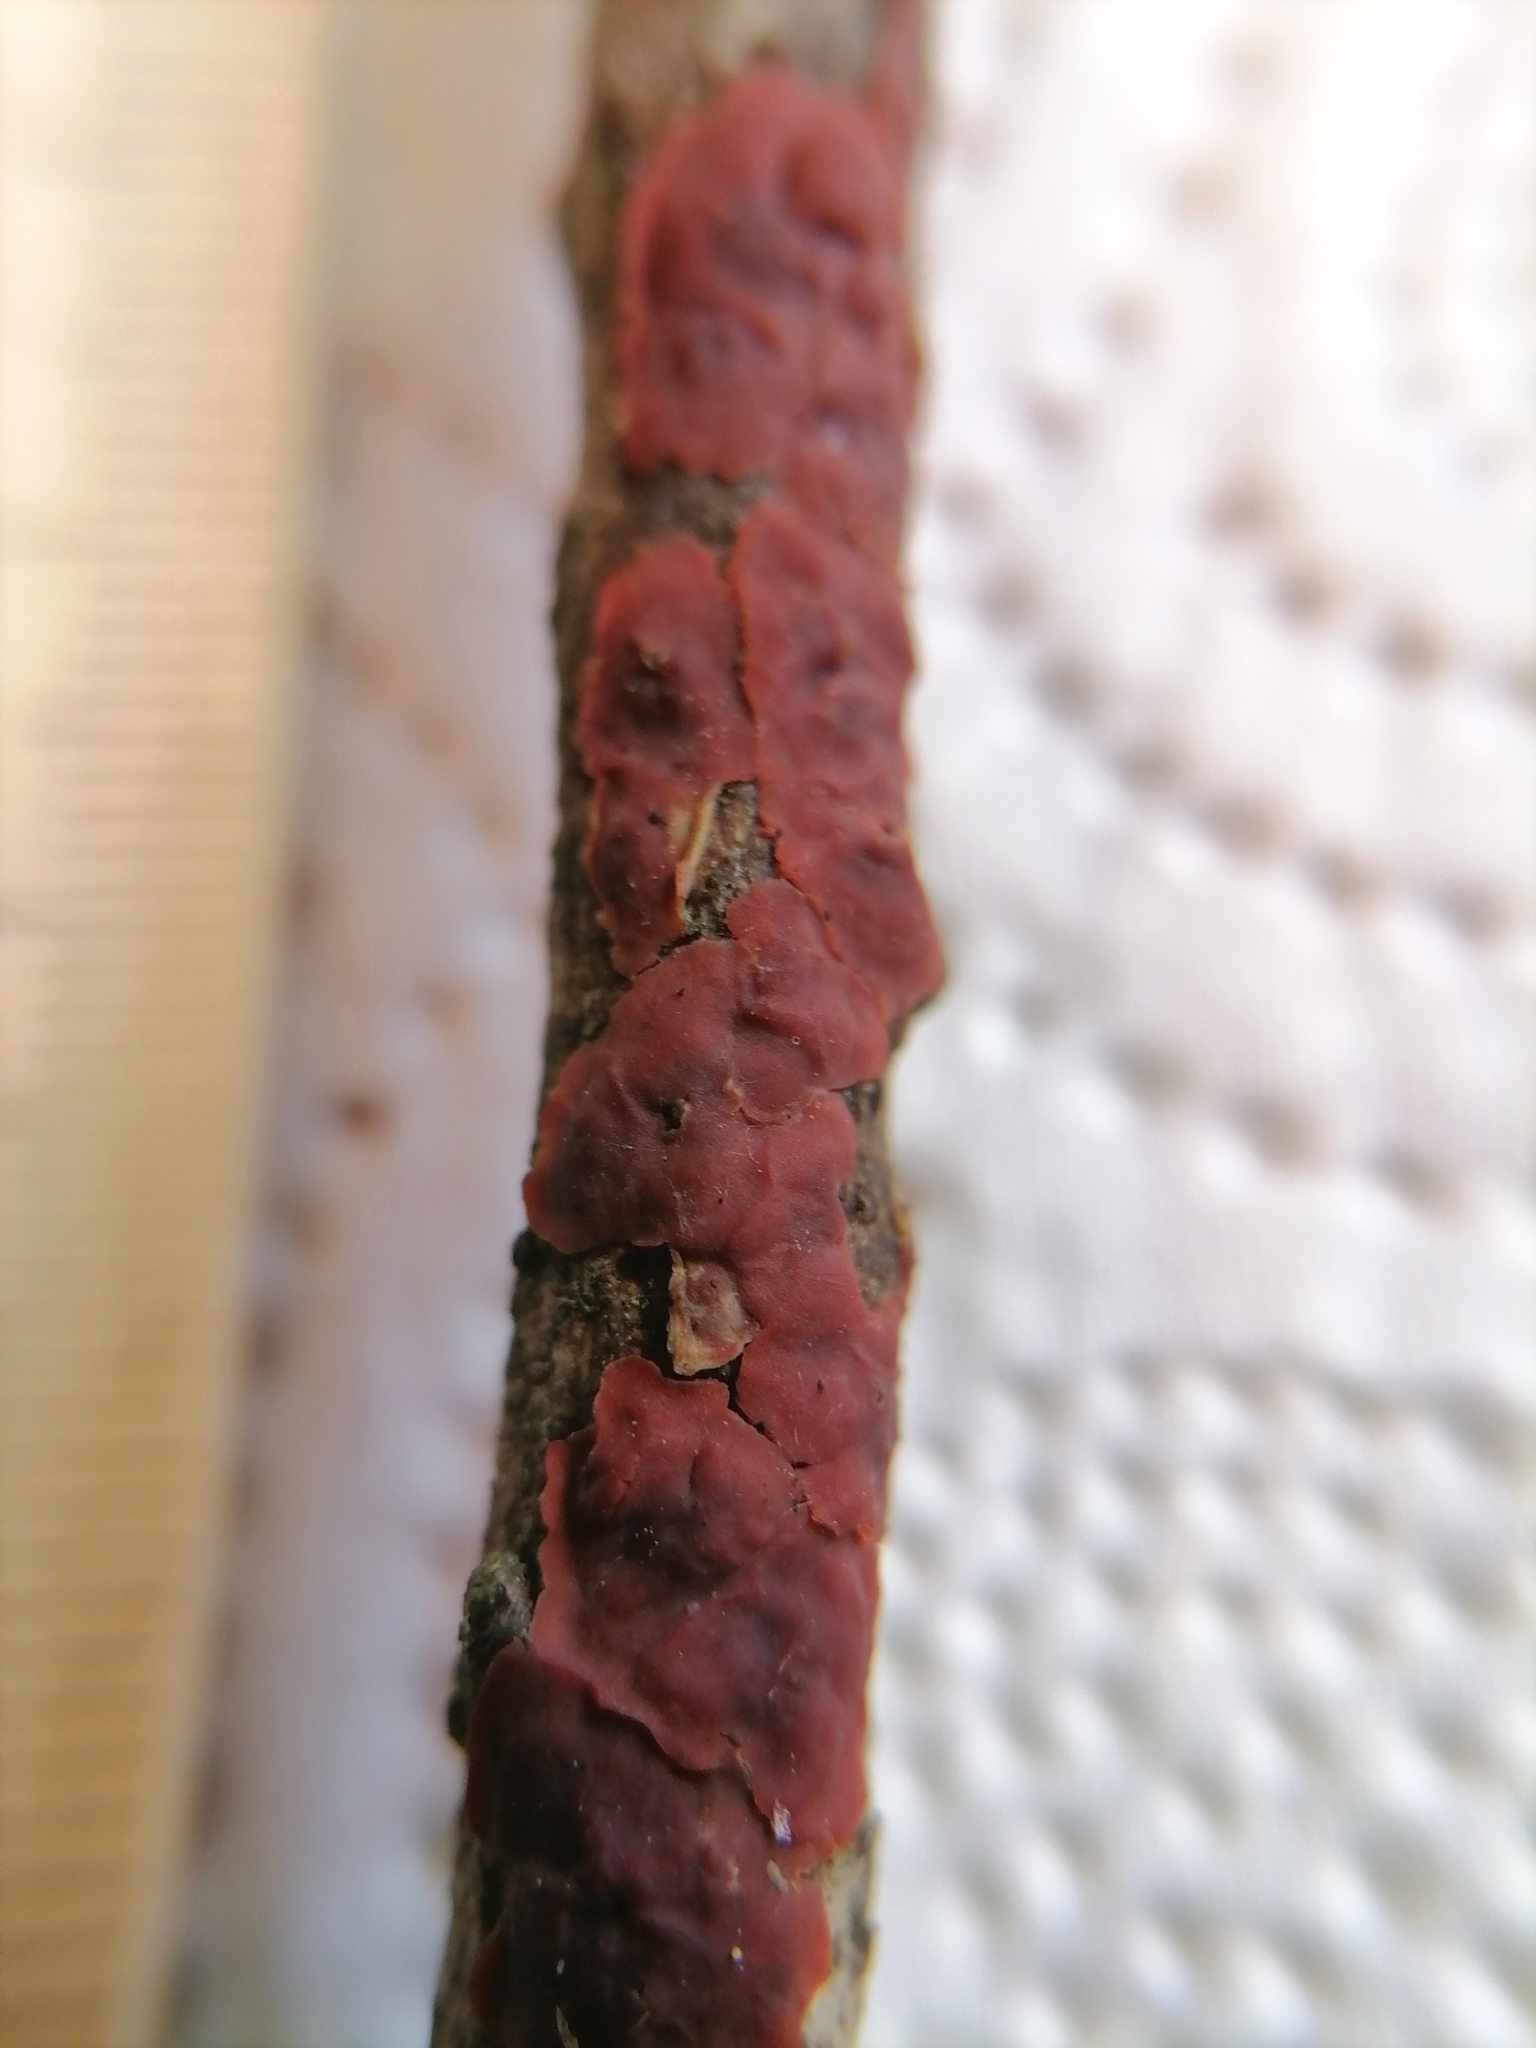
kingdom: Fungi
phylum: Basidiomycota
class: Agaricomycetes
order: Corticiales
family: Vuilleminiaceae
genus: Cytidia
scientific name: Cytidia salicina
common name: Scarlet splash
